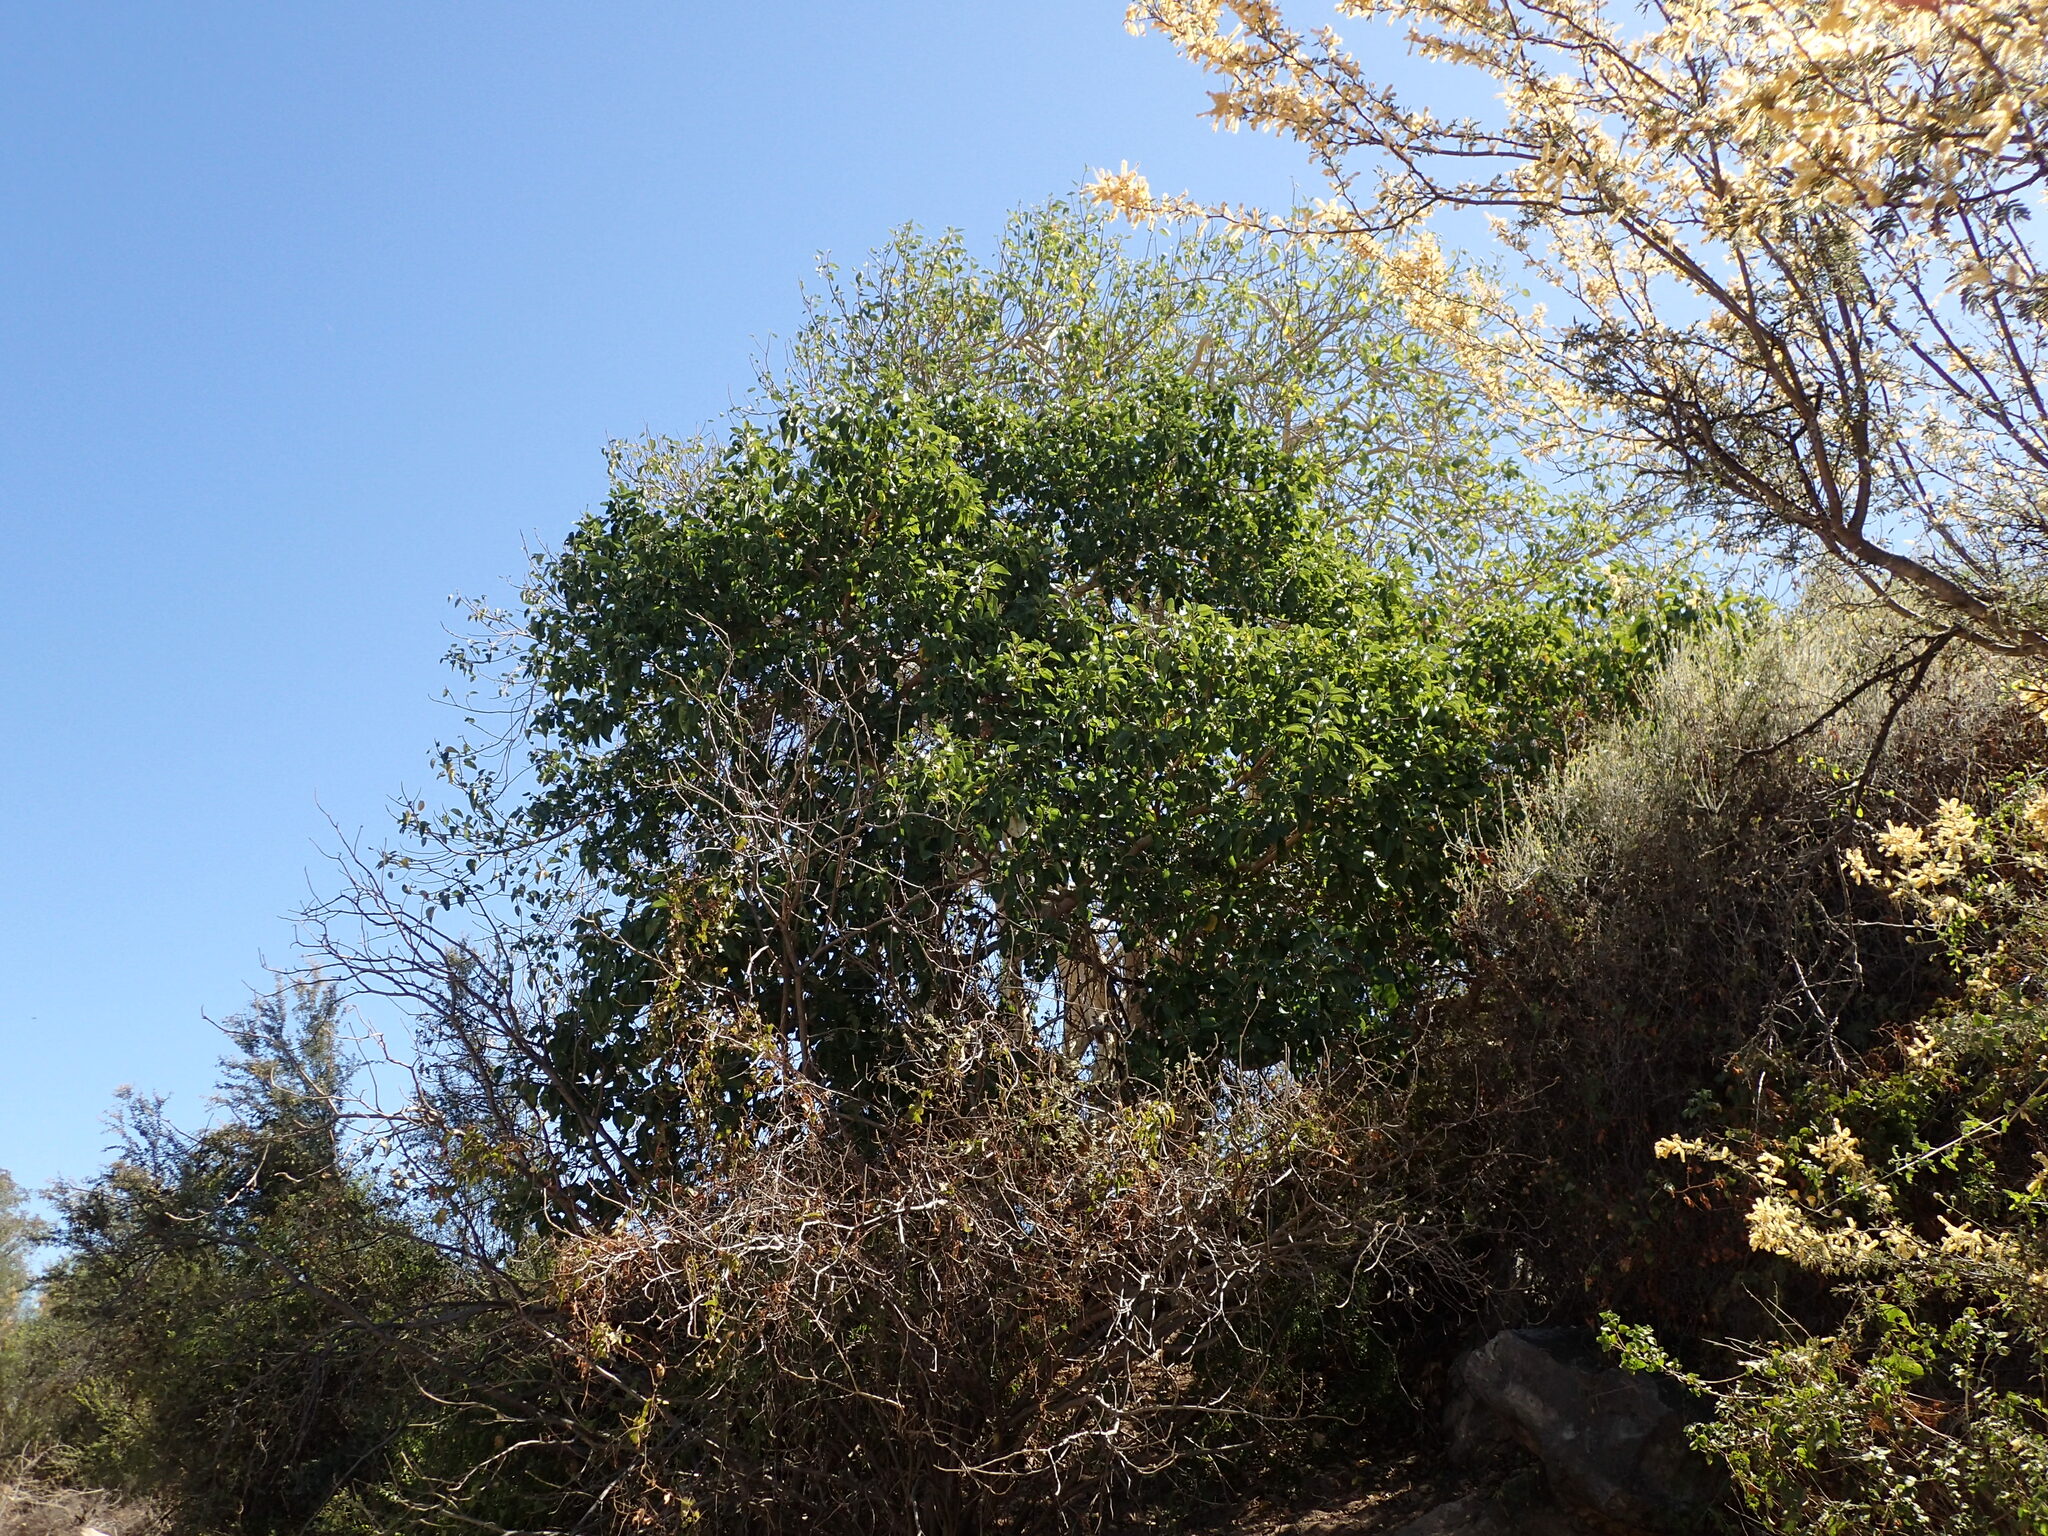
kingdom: Plantae
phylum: Tracheophyta
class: Magnoliopsida
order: Rosales
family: Moraceae
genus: Ficus
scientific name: Ficus petiolaris
